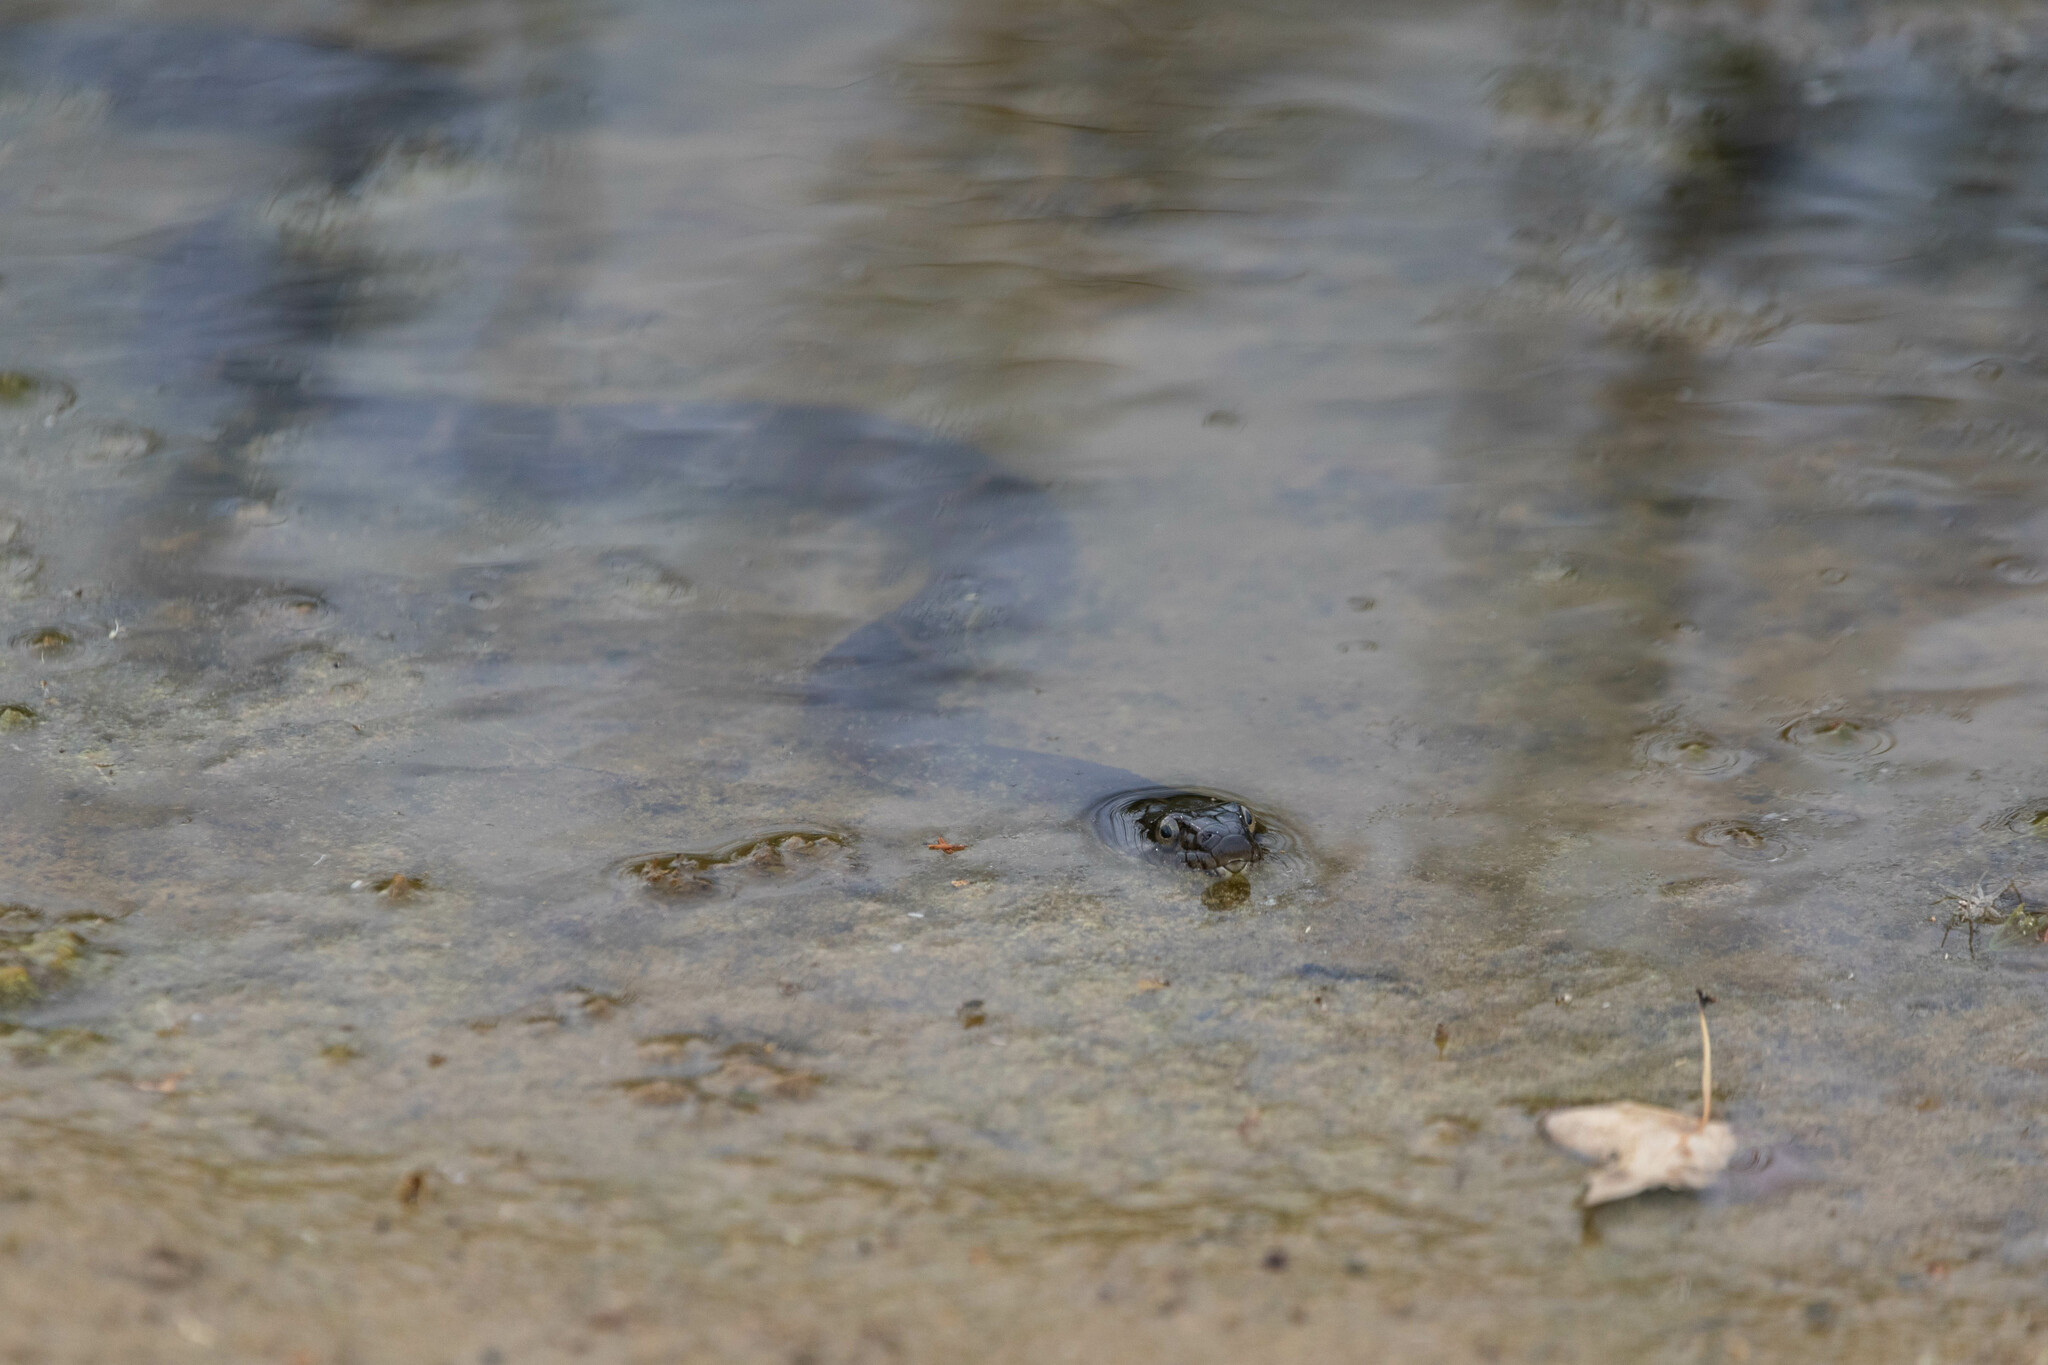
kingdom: Animalia
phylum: Chordata
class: Squamata
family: Colubridae
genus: Nerodia
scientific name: Nerodia sipedon
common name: Northern water snake
